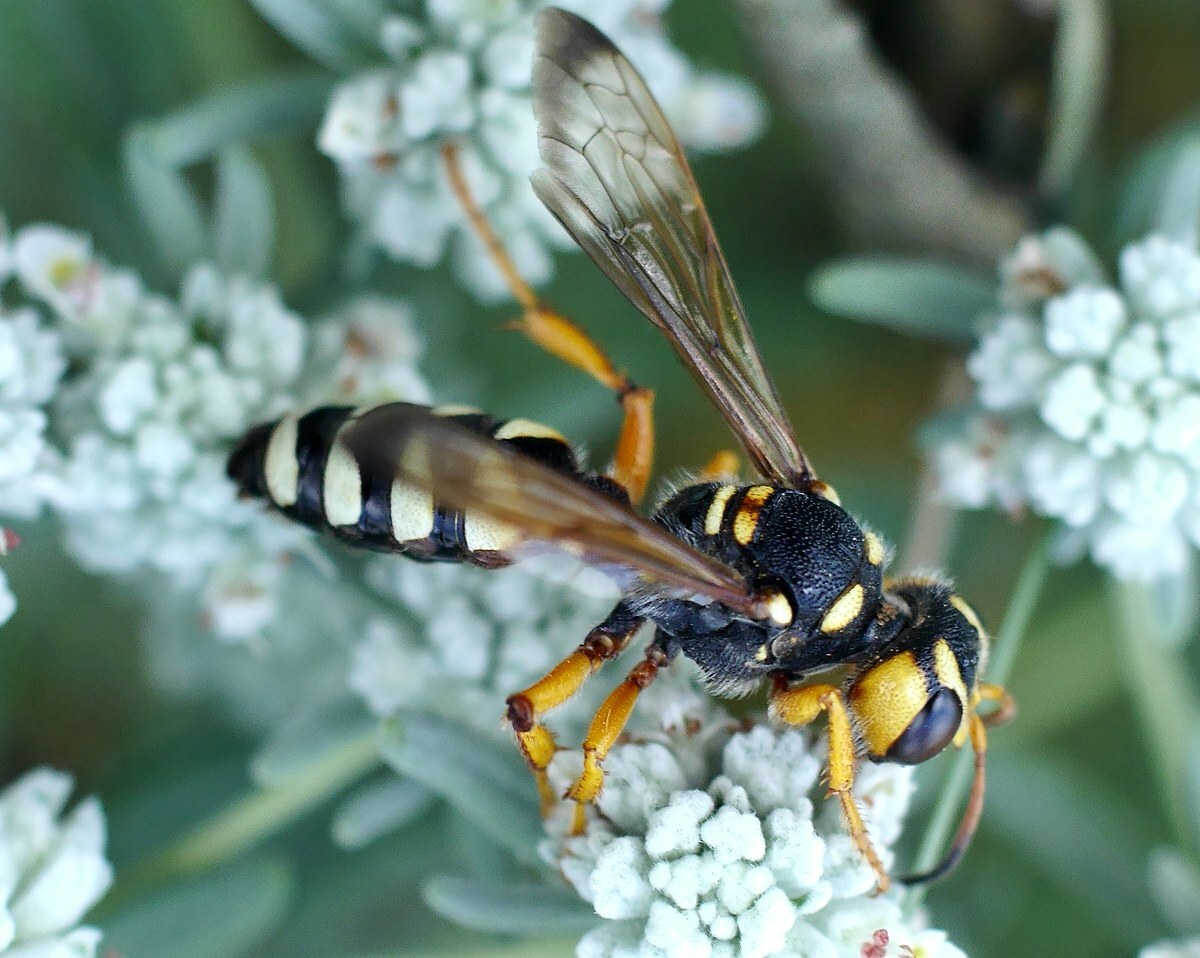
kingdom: Animalia
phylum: Arthropoda
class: Insecta
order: Hymenoptera
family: Crabronidae
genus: Cerceris
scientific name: Cerceris tuberculata
